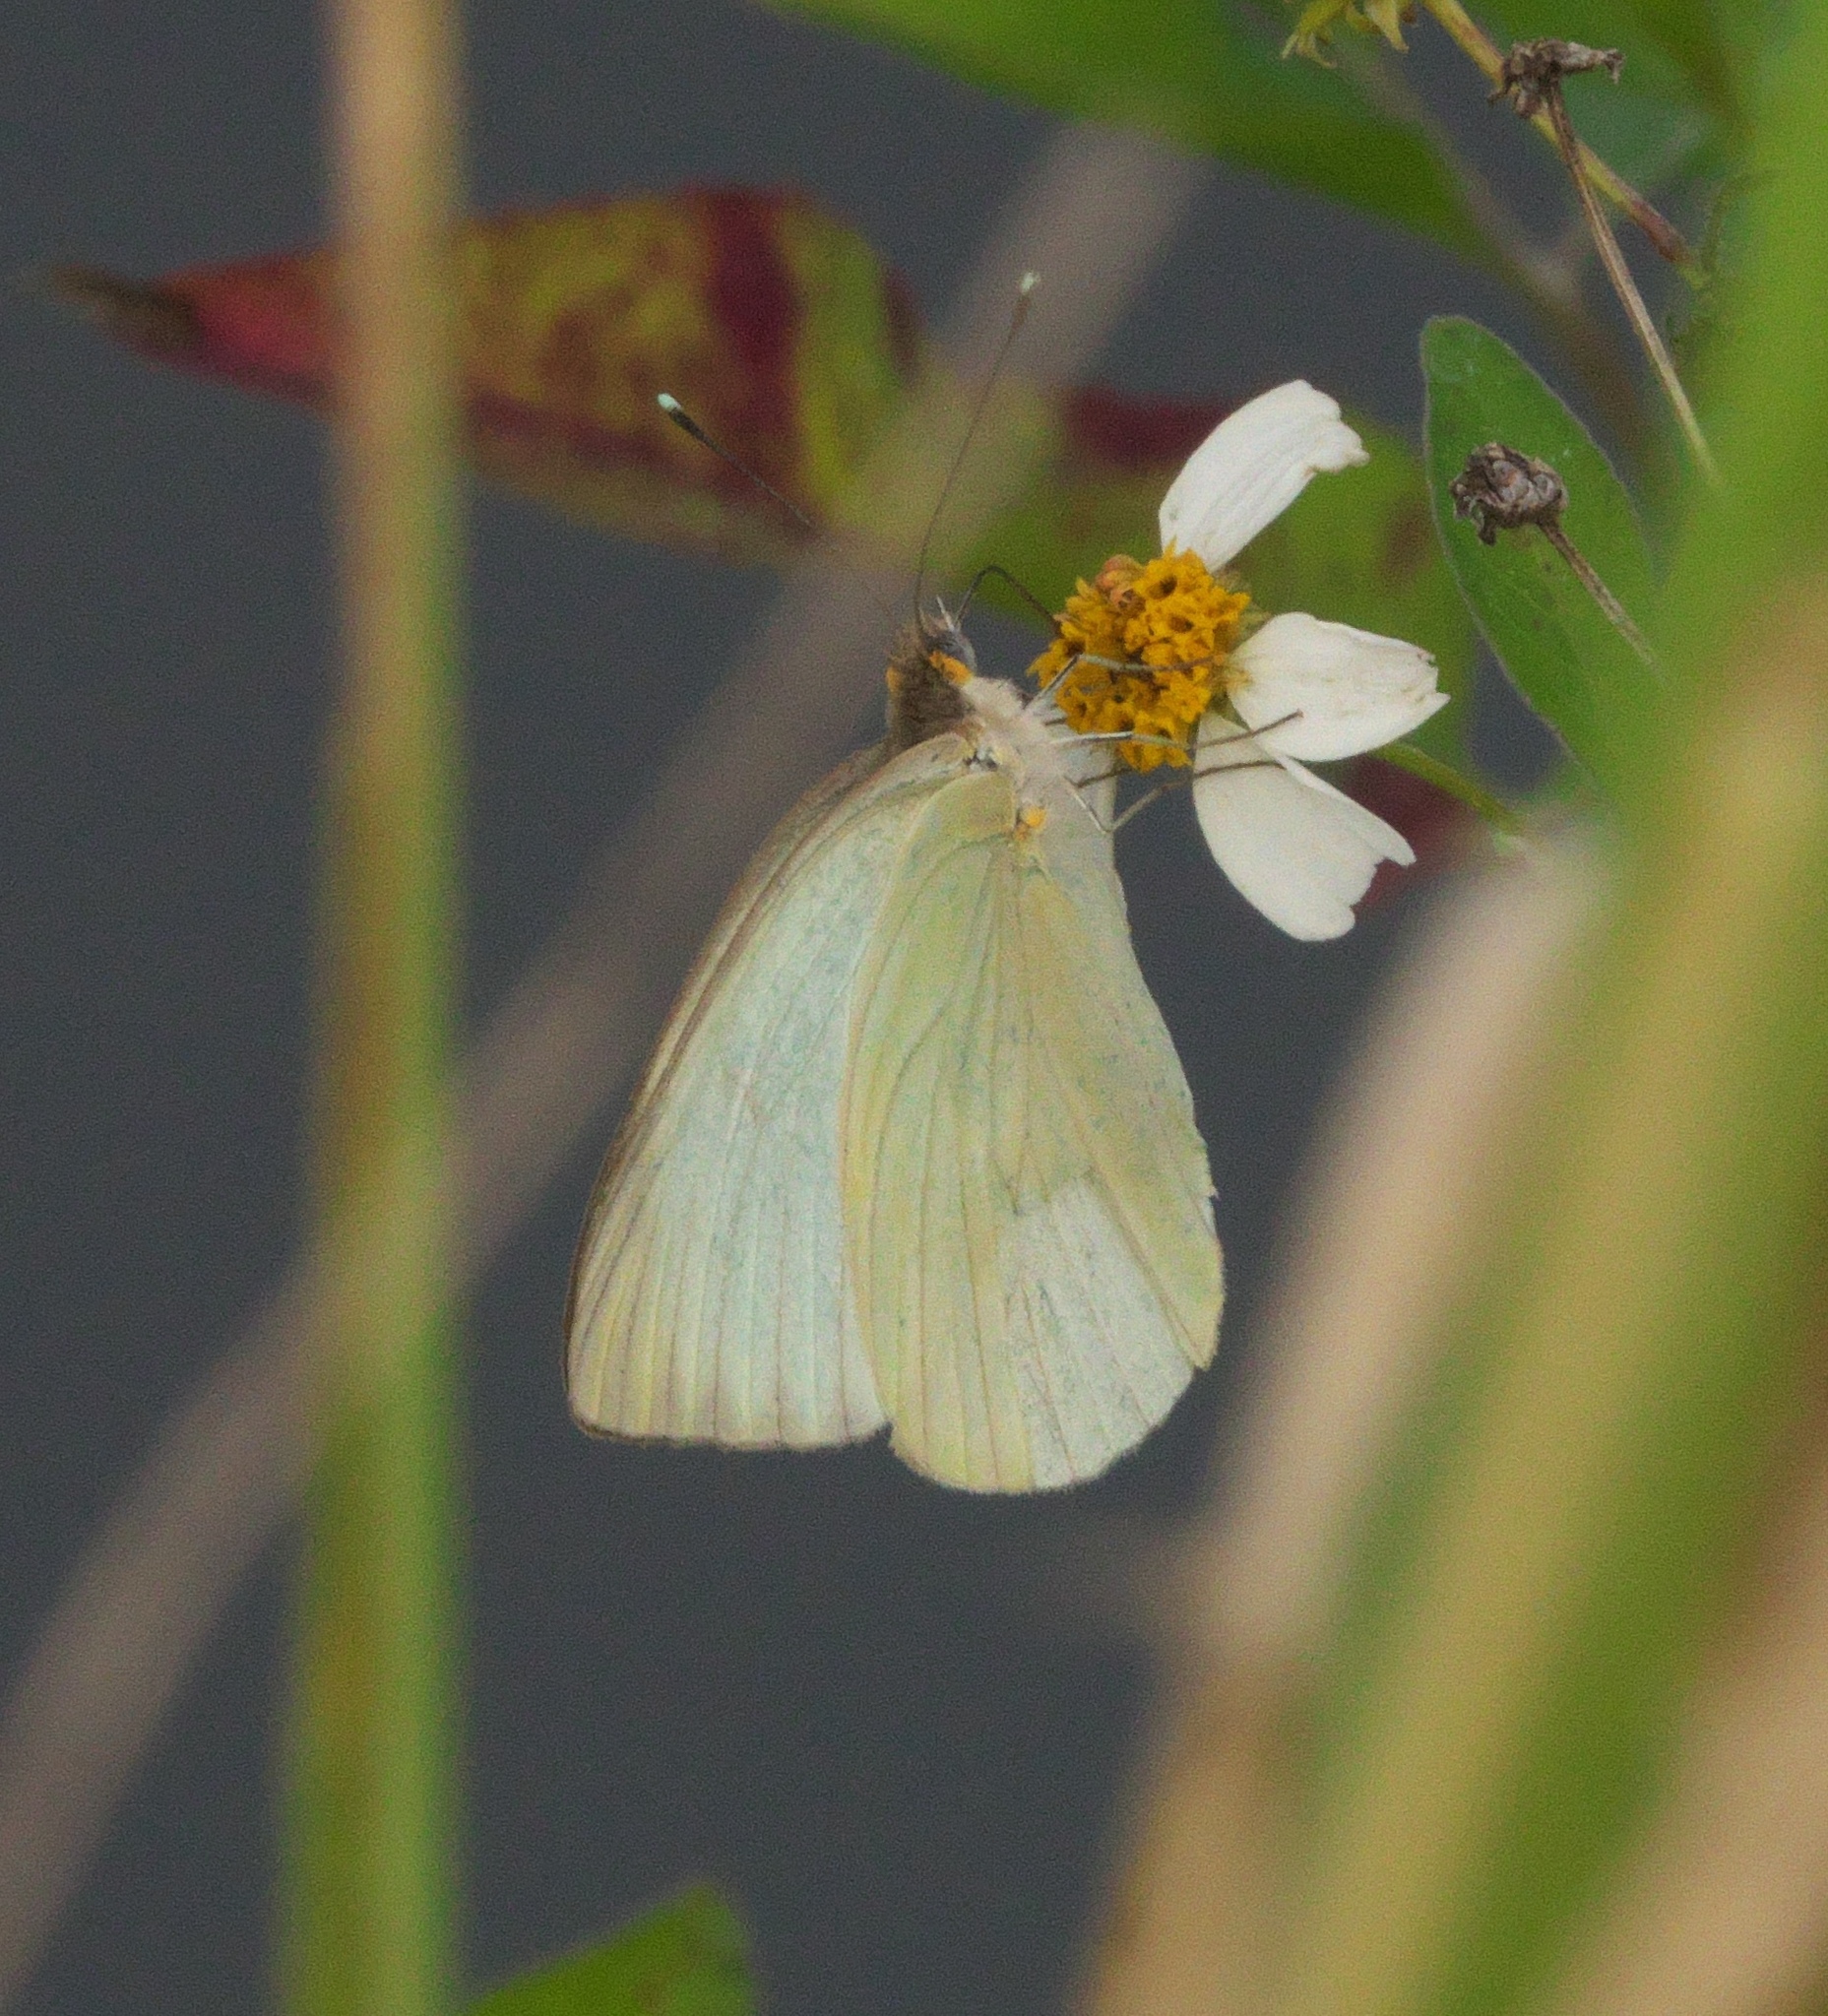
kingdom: Animalia
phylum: Arthropoda
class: Insecta
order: Lepidoptera
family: Pieridae
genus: Ascia
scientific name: Ascia monuste
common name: Great southern white
